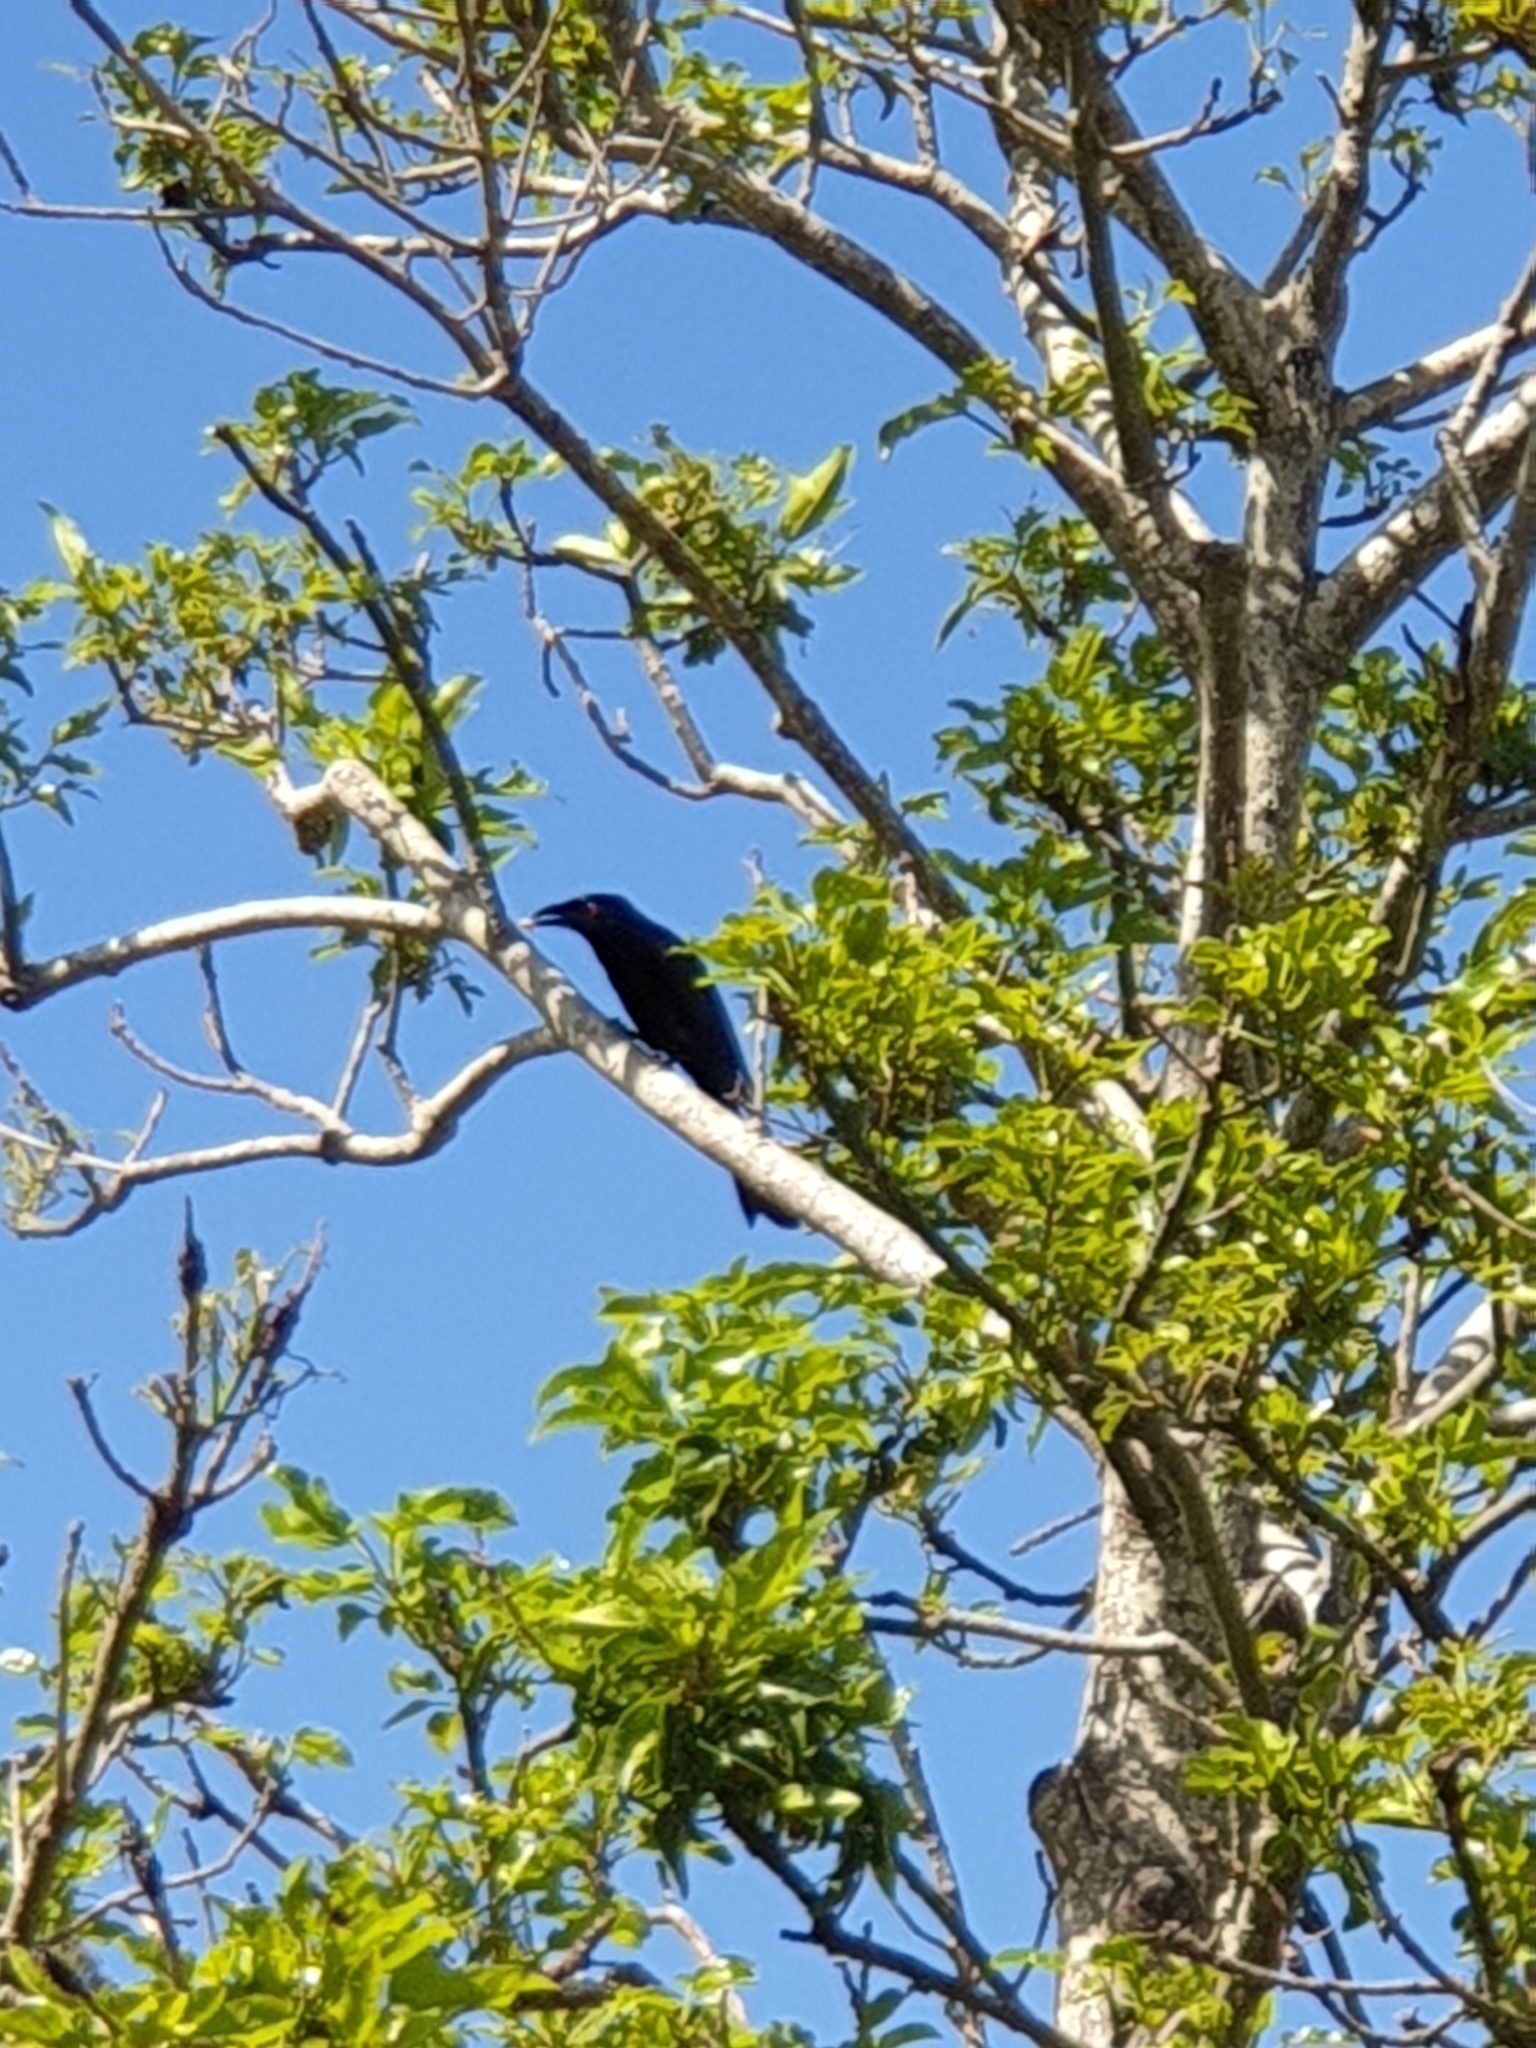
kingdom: Animalia
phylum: Chordata
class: Aves
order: Passeriformes
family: Dicruridae
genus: Dicrurus
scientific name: Dicrurus bracteatus
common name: Spangled drongo
